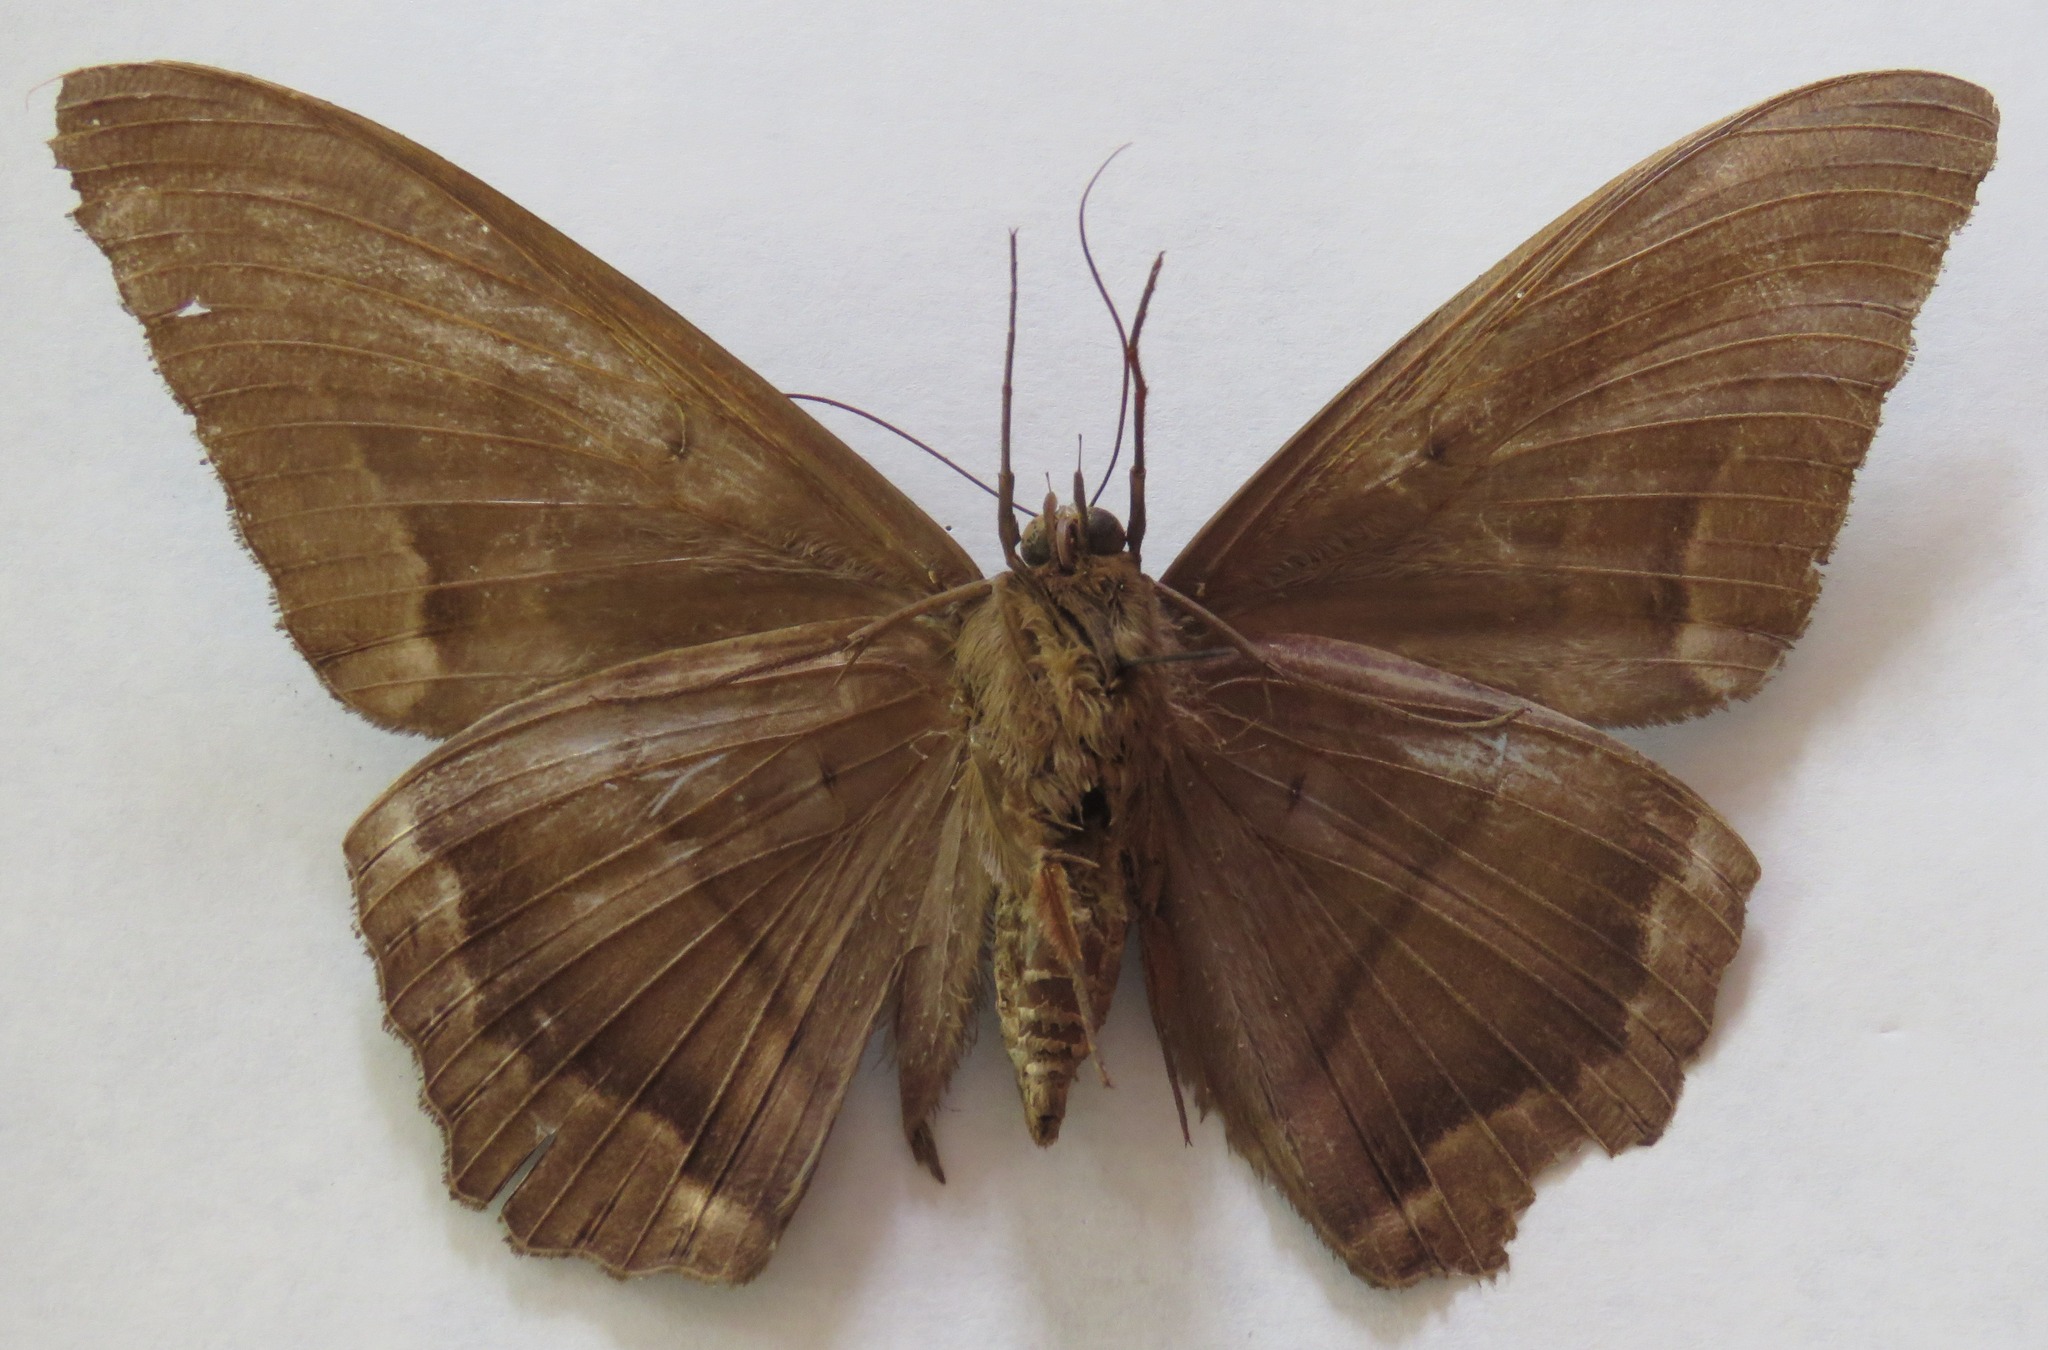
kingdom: Animalia
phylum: Arthropoda
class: Insecta
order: Lepidoptera
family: Erebidae
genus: Ascalapha
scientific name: Ascalapha odorata
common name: Black witch
